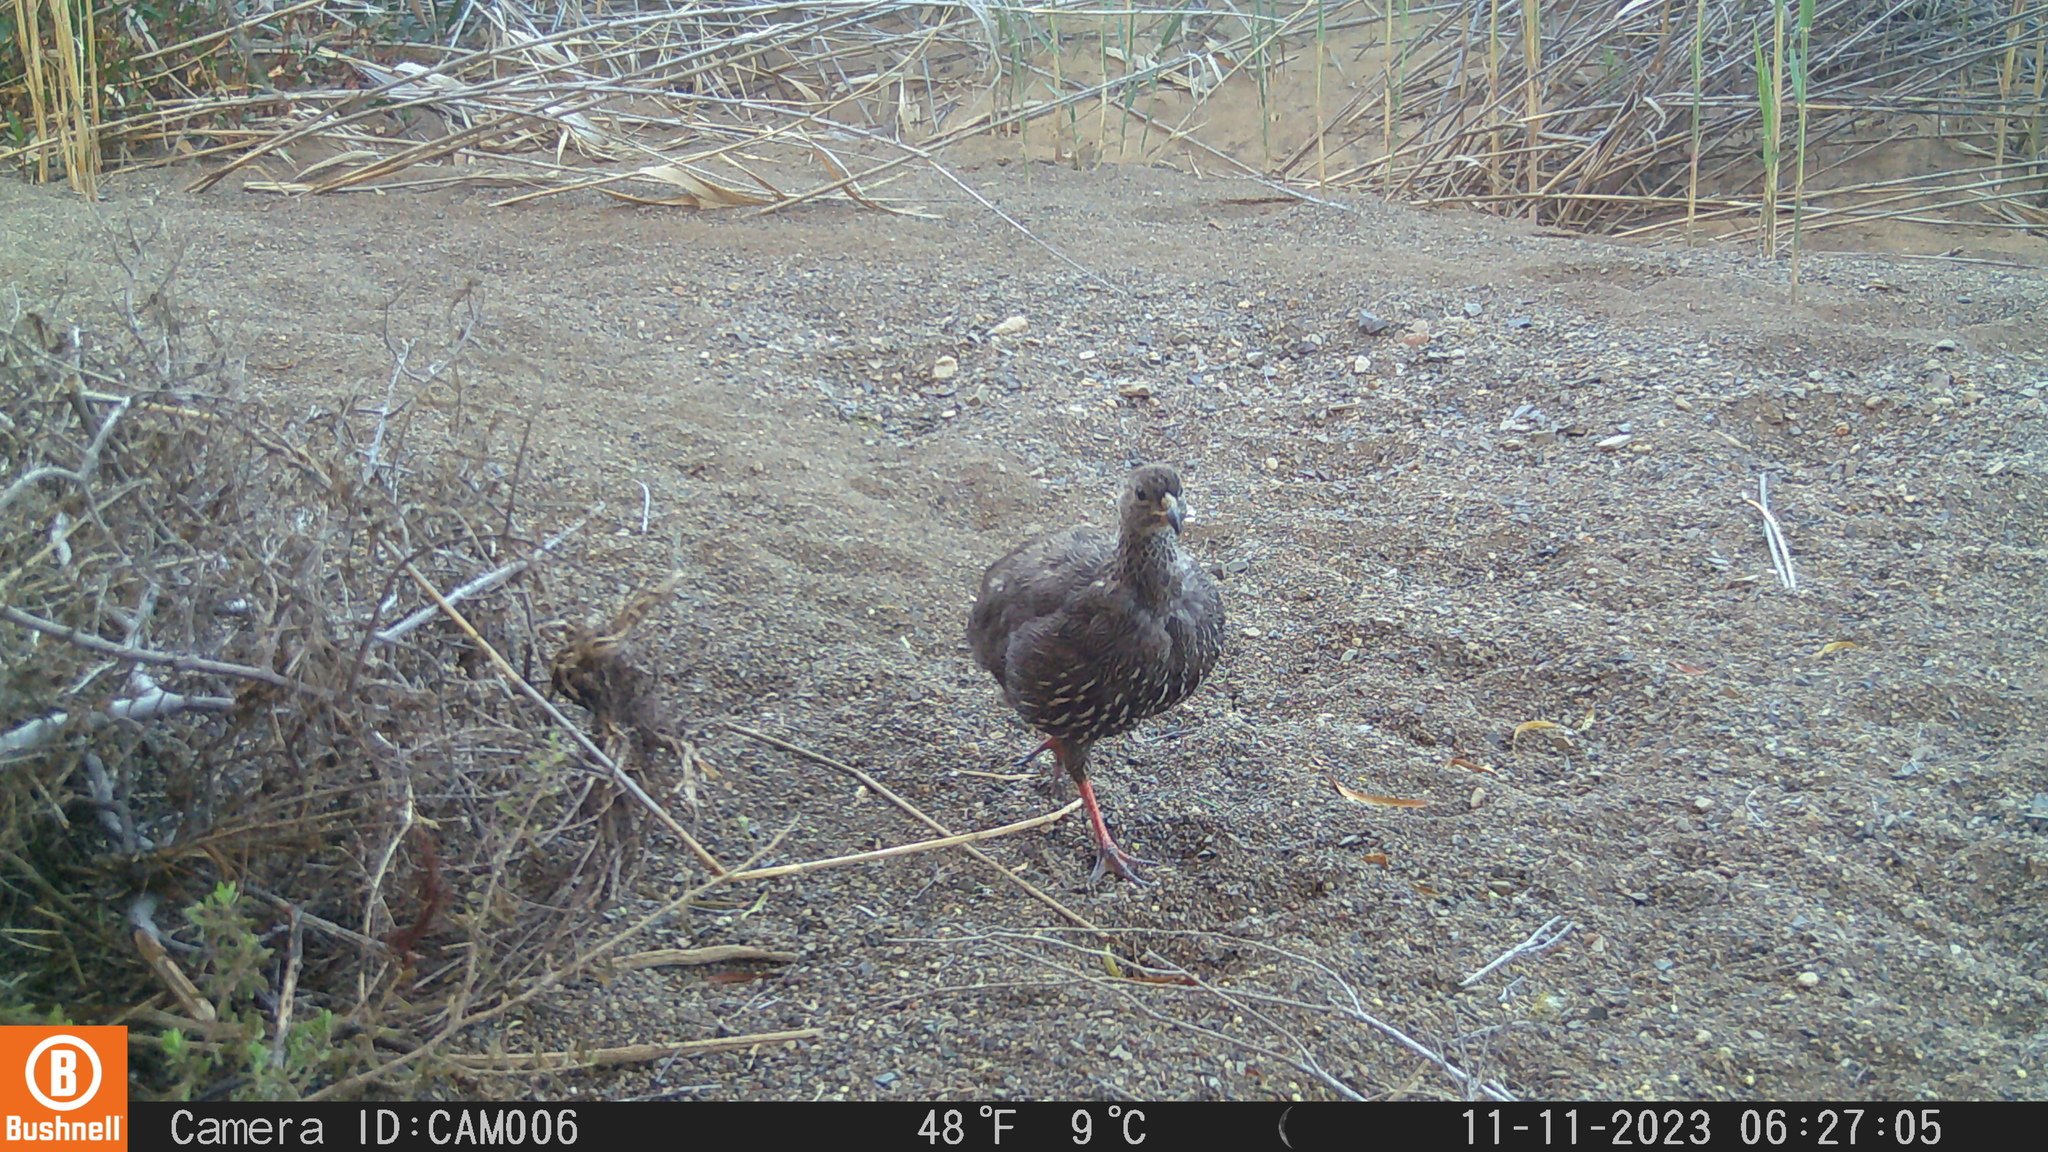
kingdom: Animalia
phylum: Chordata
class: Aves
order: Galliformes
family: Phasianidae
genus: Pternistis
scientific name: Pternistis capensis
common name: Cape spurfowl
